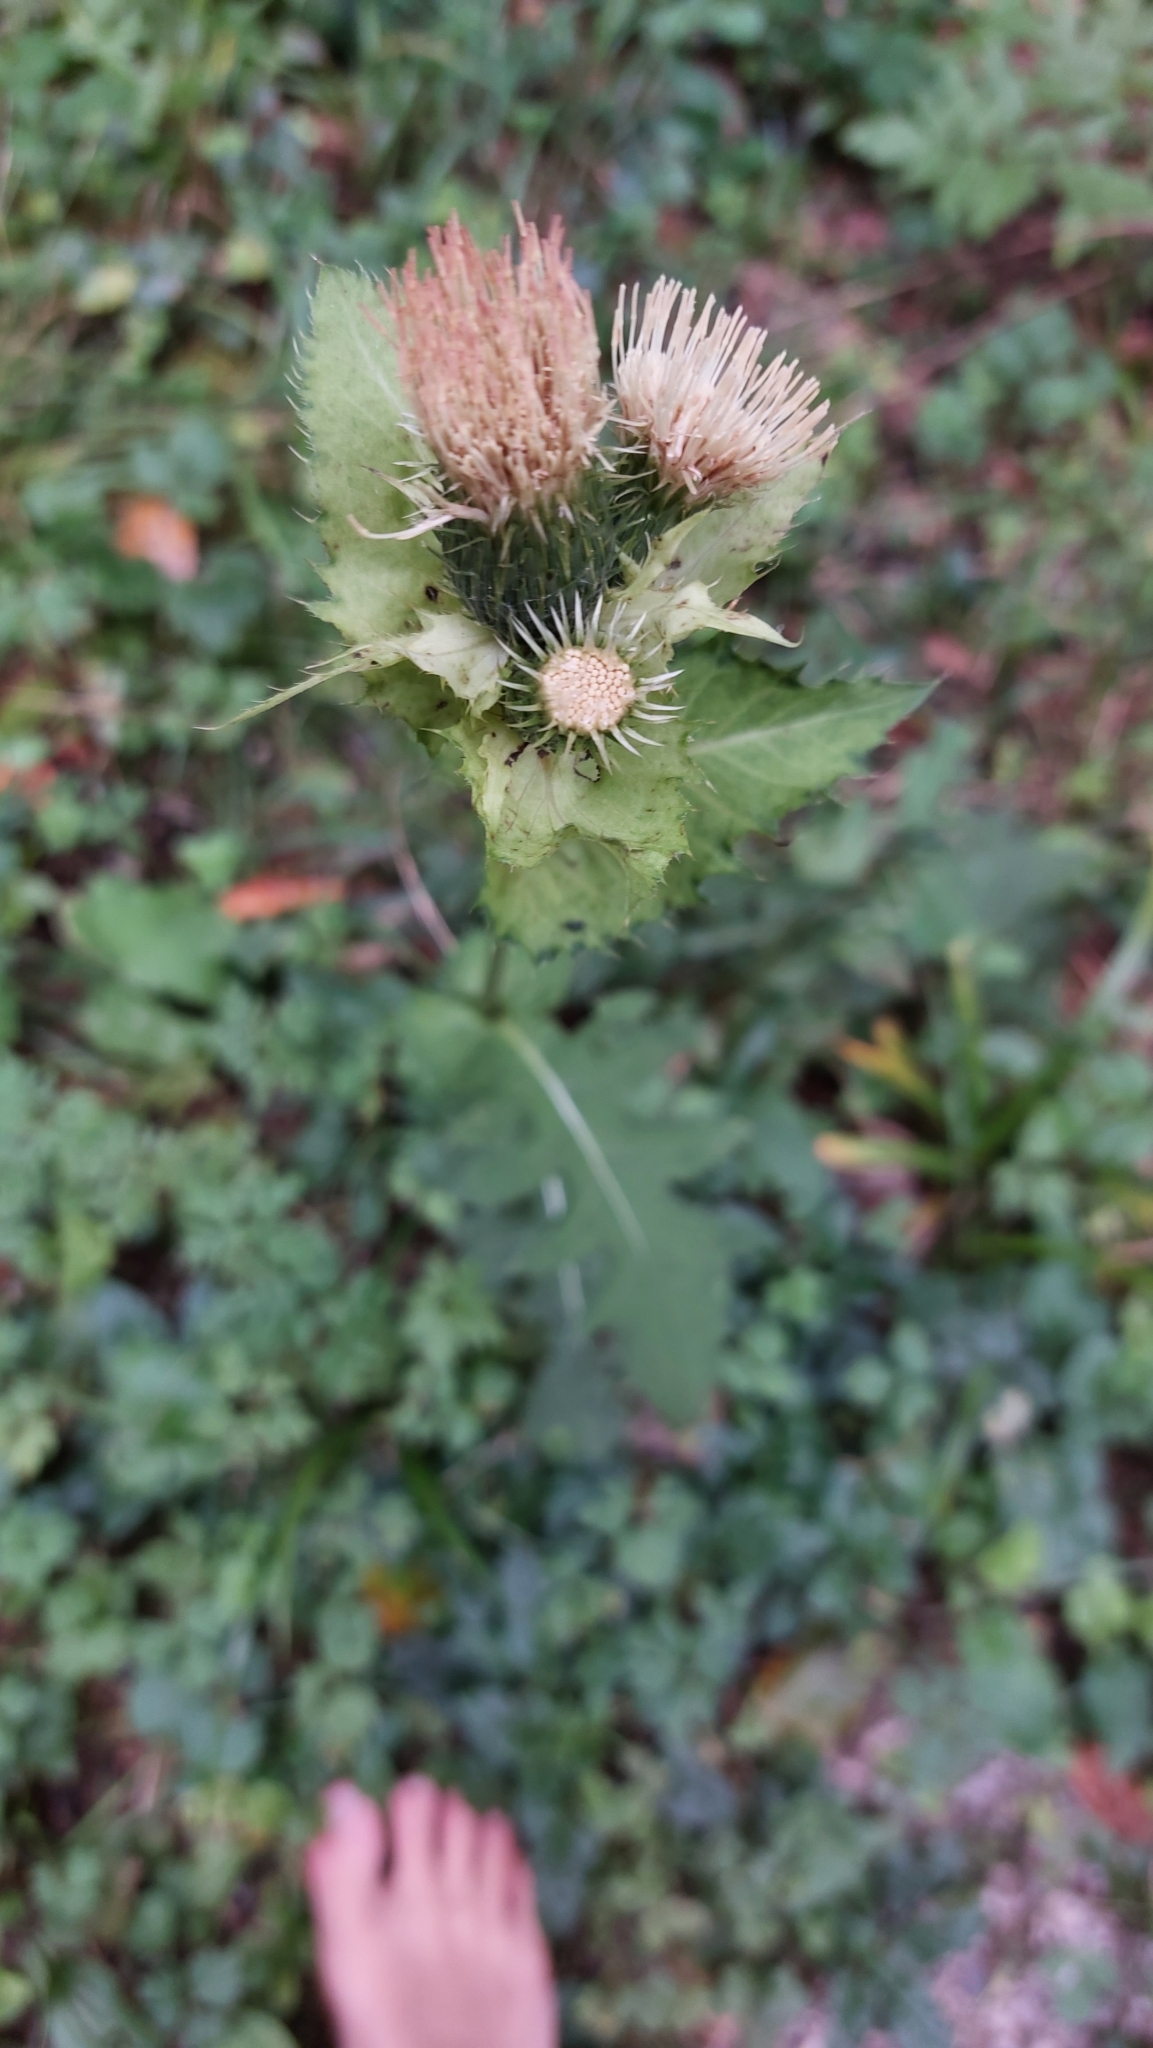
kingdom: Plantae
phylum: Tracheophyta
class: Magnoliopsida
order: Asterales
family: Asteraceae
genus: Cirsium
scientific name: Cirsium oleraceum
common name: Cabbage thistle
